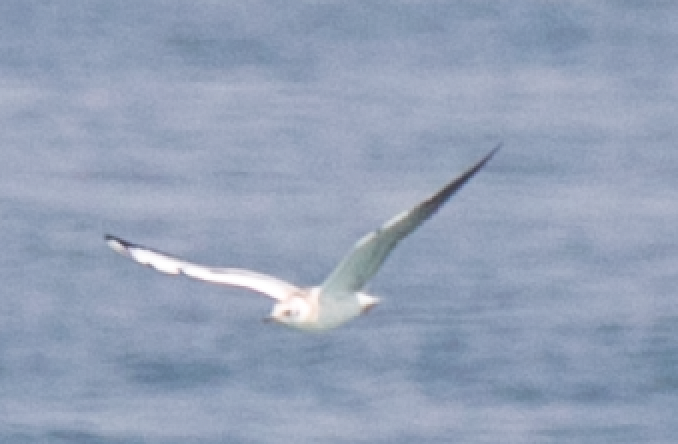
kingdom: Animalia
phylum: Chordata
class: Aves
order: Charadriiformes
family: Laridae
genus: Chroicocephalus
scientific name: Chroicocephalus ridibundus
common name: Black-headed gull
